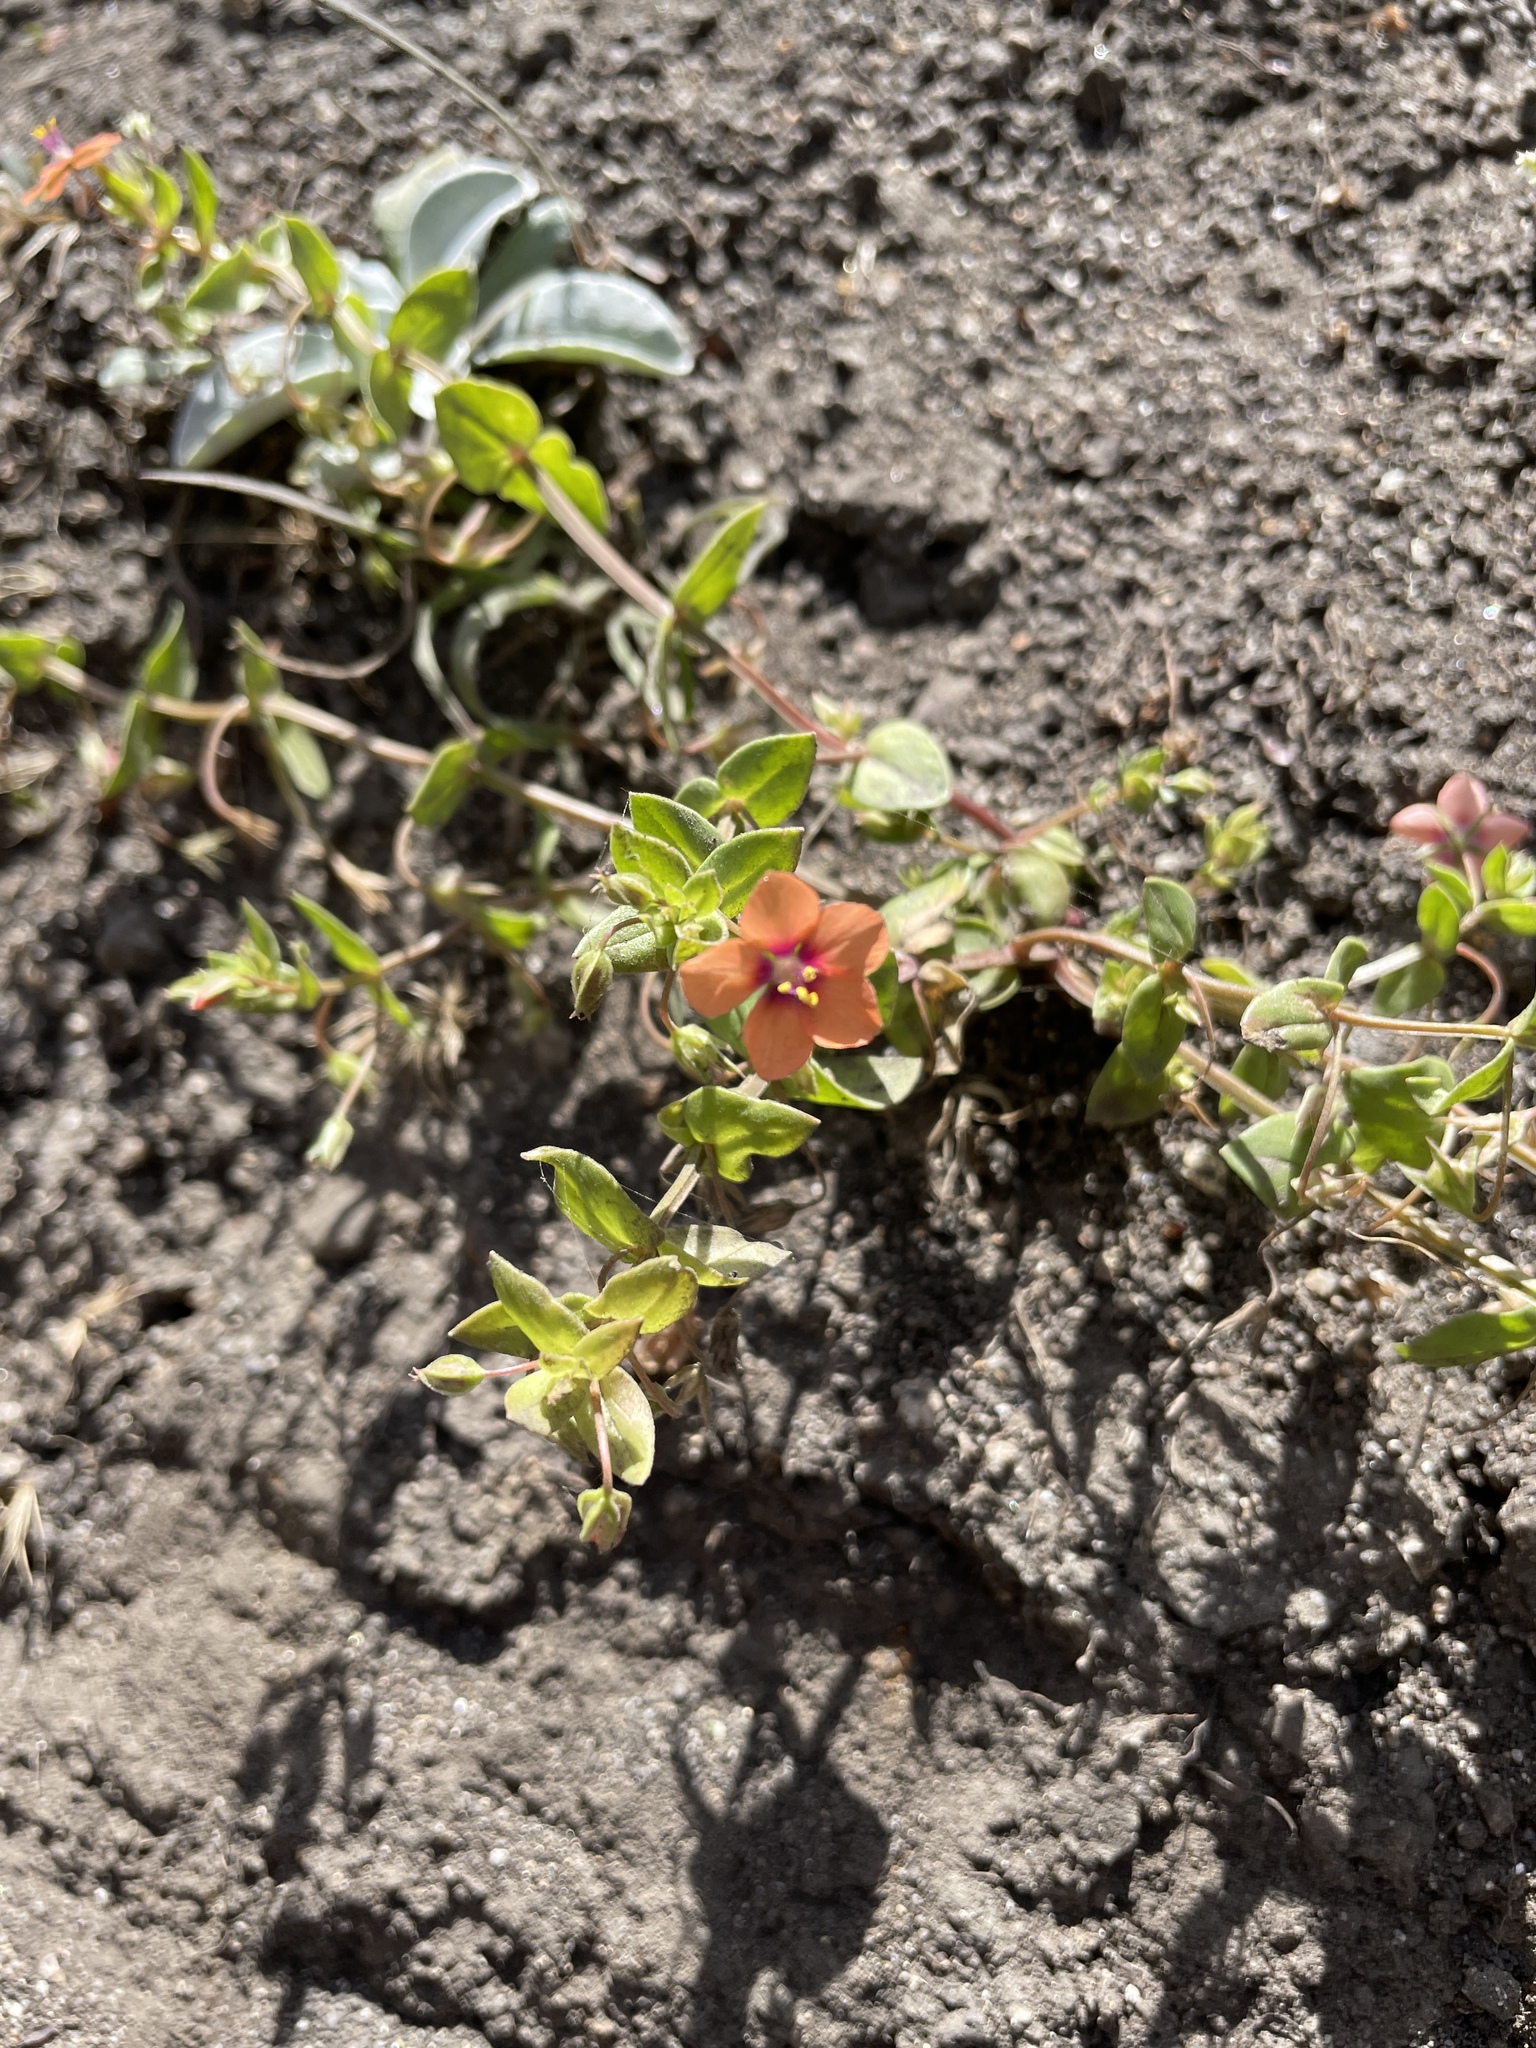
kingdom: Plantae
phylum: Tracheophyta
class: Magnoliopsida
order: Ericales
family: Primulaceae
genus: Lysimachia
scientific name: Lysimachia arvensis
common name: Scarlet pimpernel
